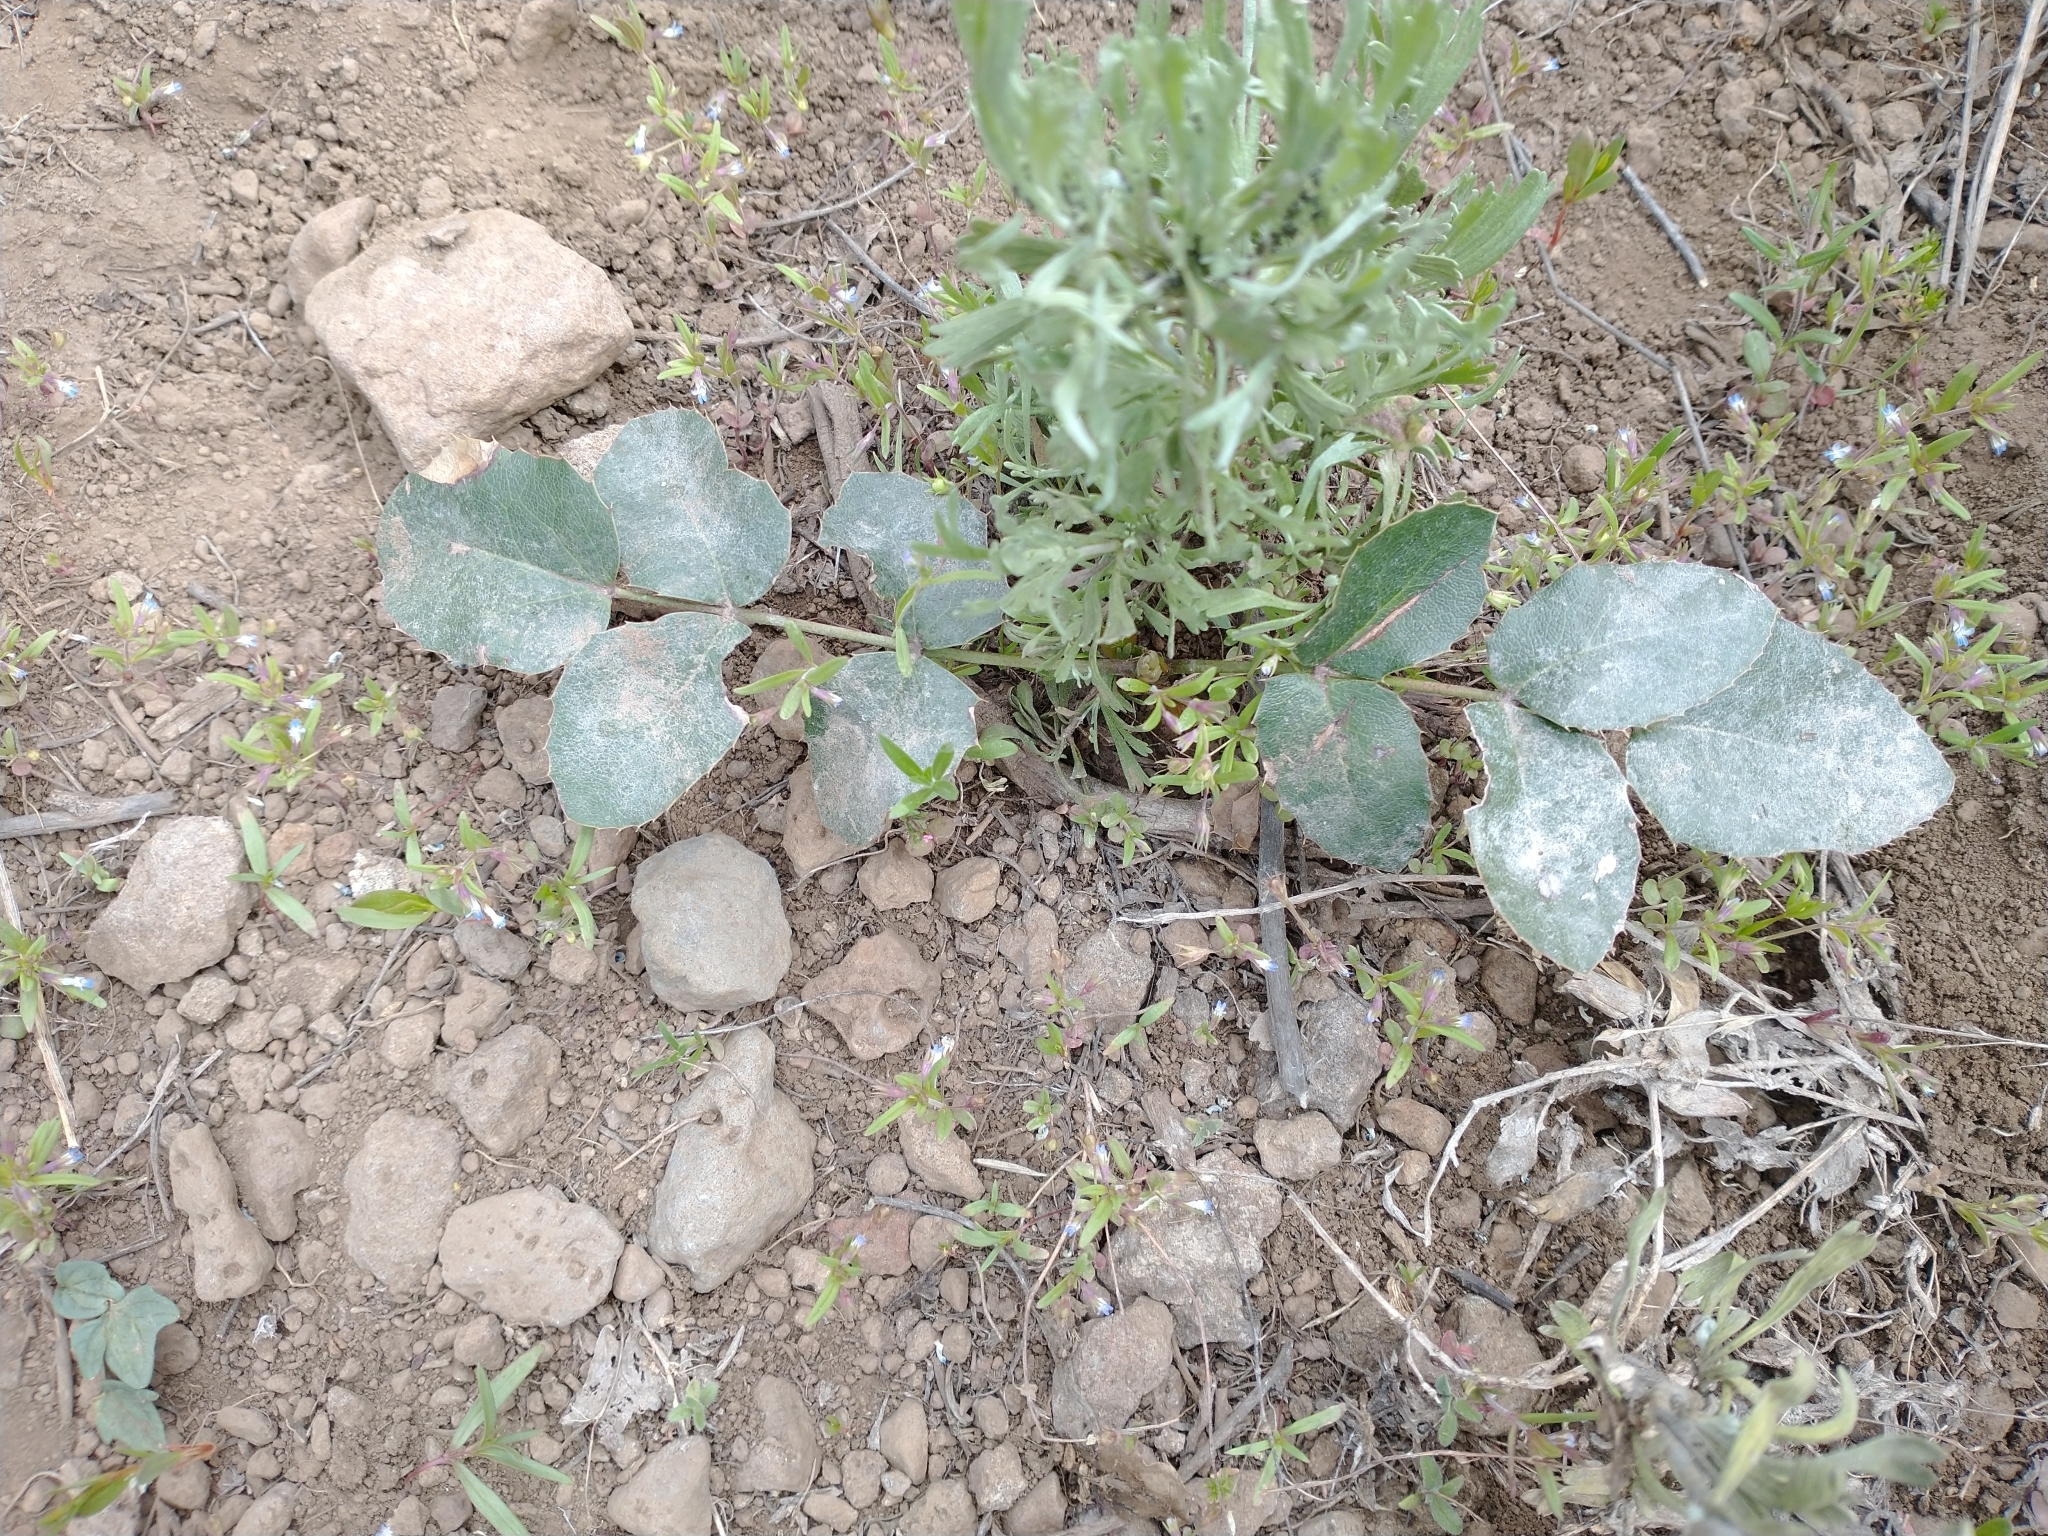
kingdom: Plantae
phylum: Tracheophyta
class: Magnoliopsida
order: Ranunculales
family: Berberidaceae
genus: Mahonia
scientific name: Mahonia repens
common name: Creeping oregon-grape
